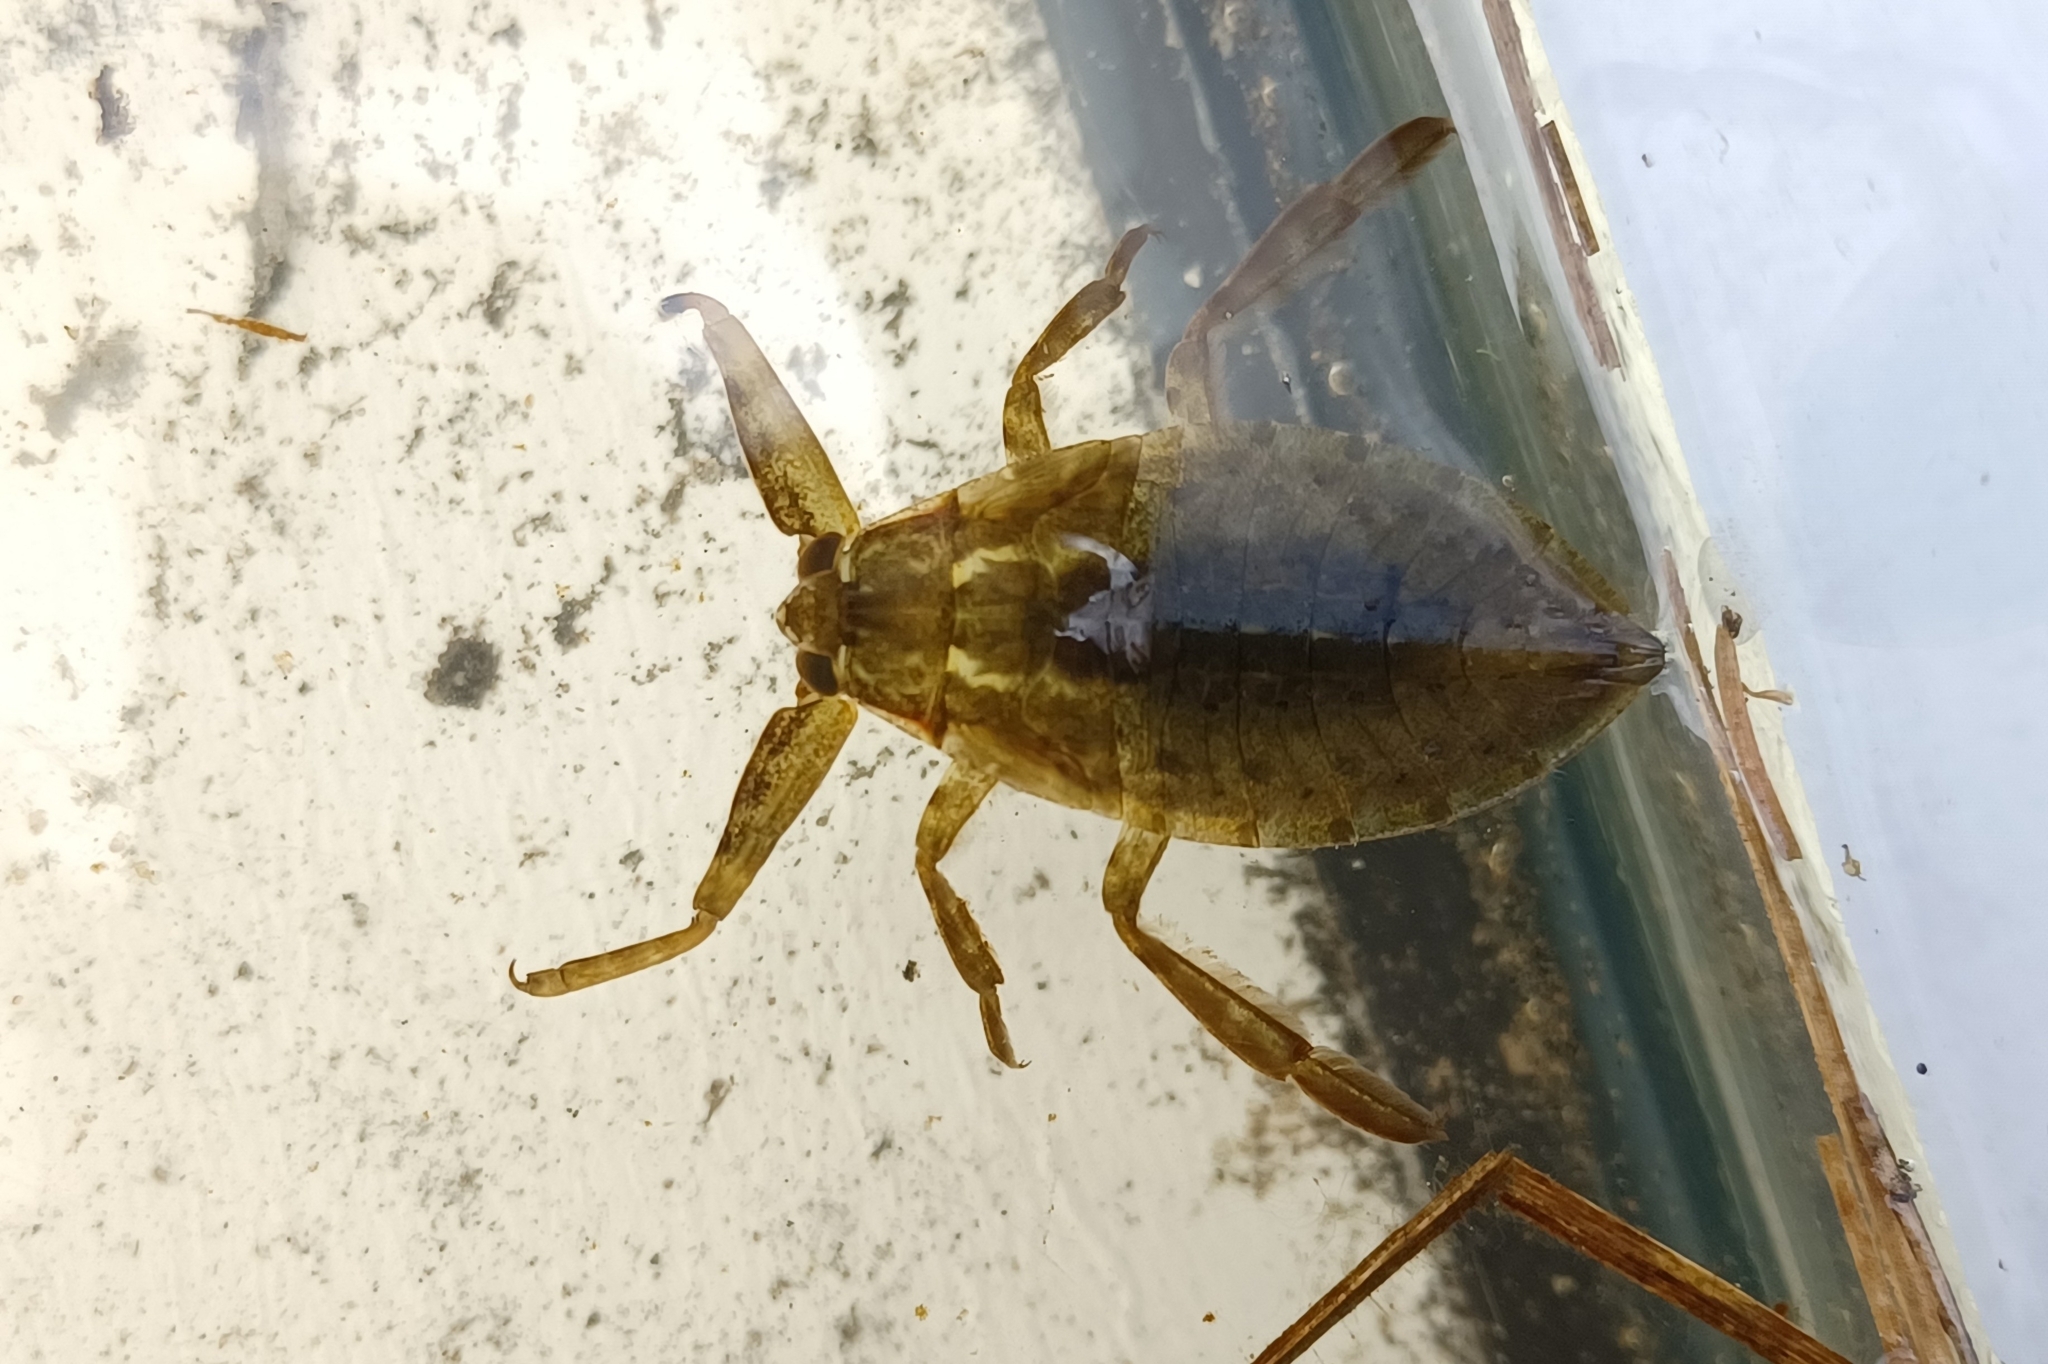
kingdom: Animalia
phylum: Arthropoda
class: Insecta
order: Hemiptera
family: Belostomatidae
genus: Lethocerus
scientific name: Lethocerus americanus
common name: Giant water bug
